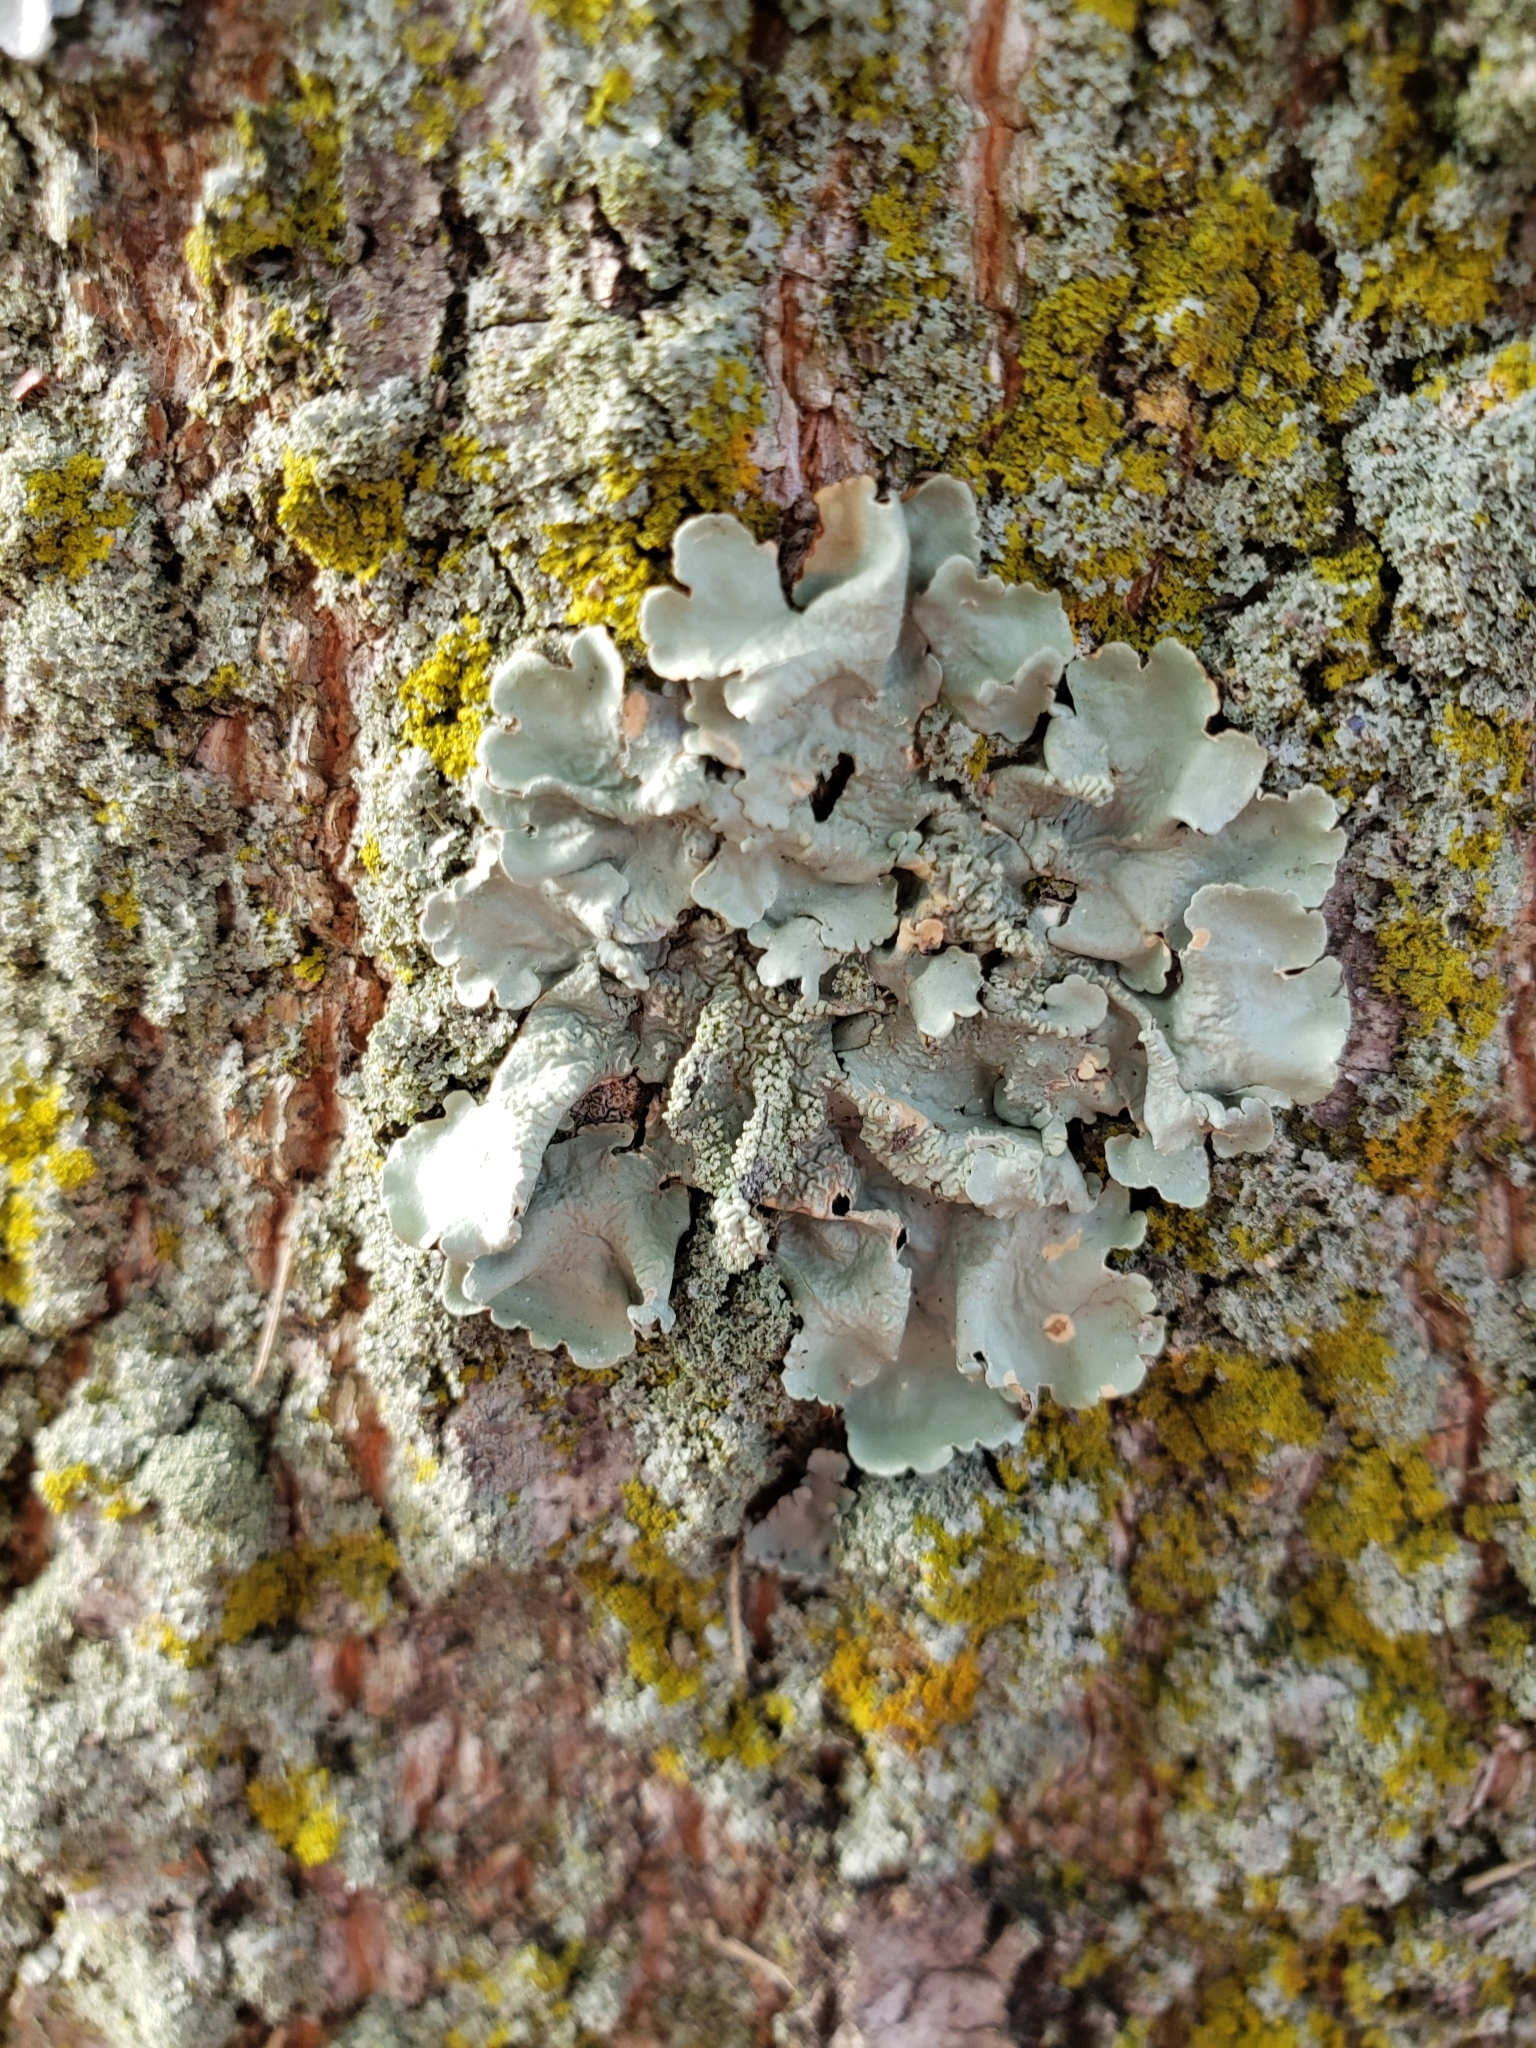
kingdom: Fungi
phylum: Ascomycota
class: Lecanoromycetes
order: Lecanorales
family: Parmeliaceae
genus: Flavoparmelia
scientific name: Flavoparmelia caperata
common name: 40-mile per hour lichen
